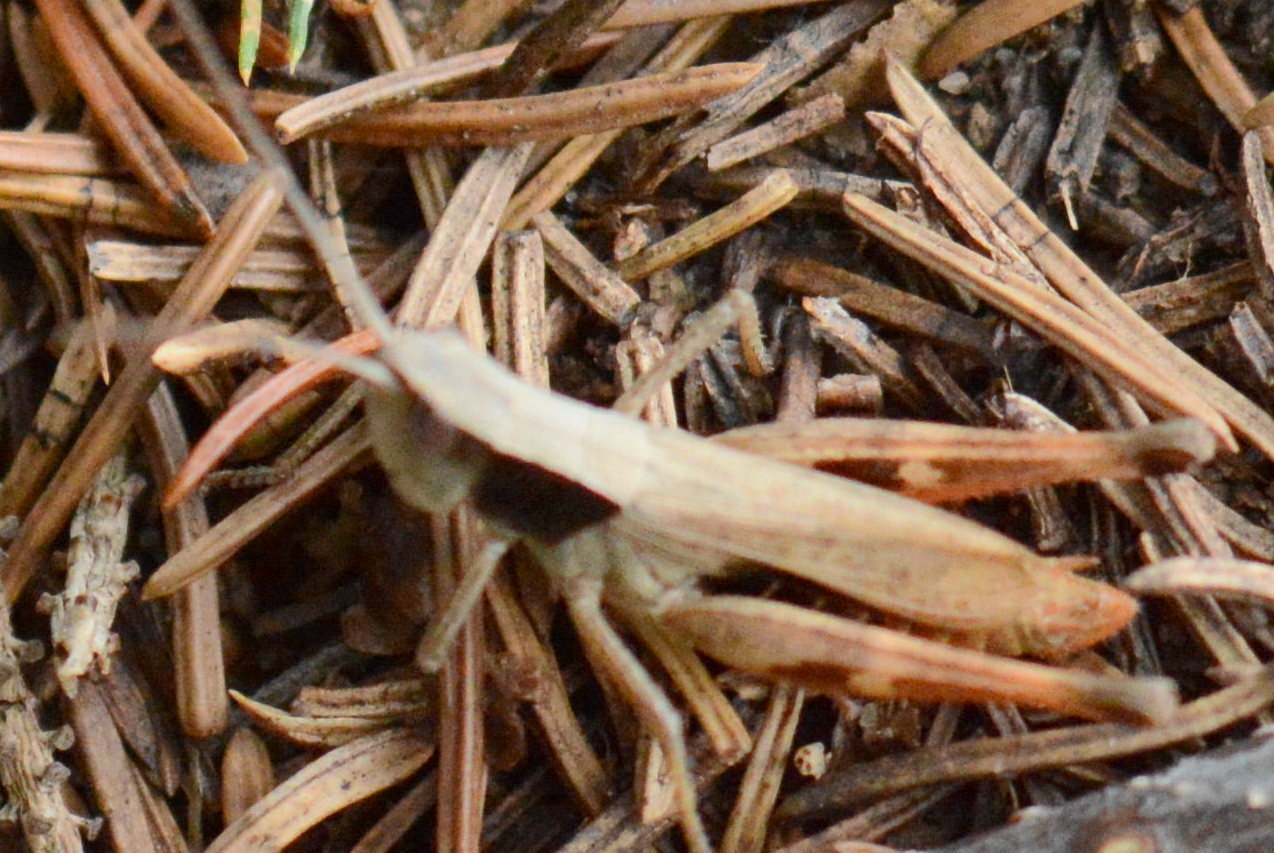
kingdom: Animalia
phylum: Arthropoda
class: Insecta
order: Orthoptera
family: Acrididae
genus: Chloealtis
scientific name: Chloealtis conspersa
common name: Sprinkled broad-winged grasshopper
